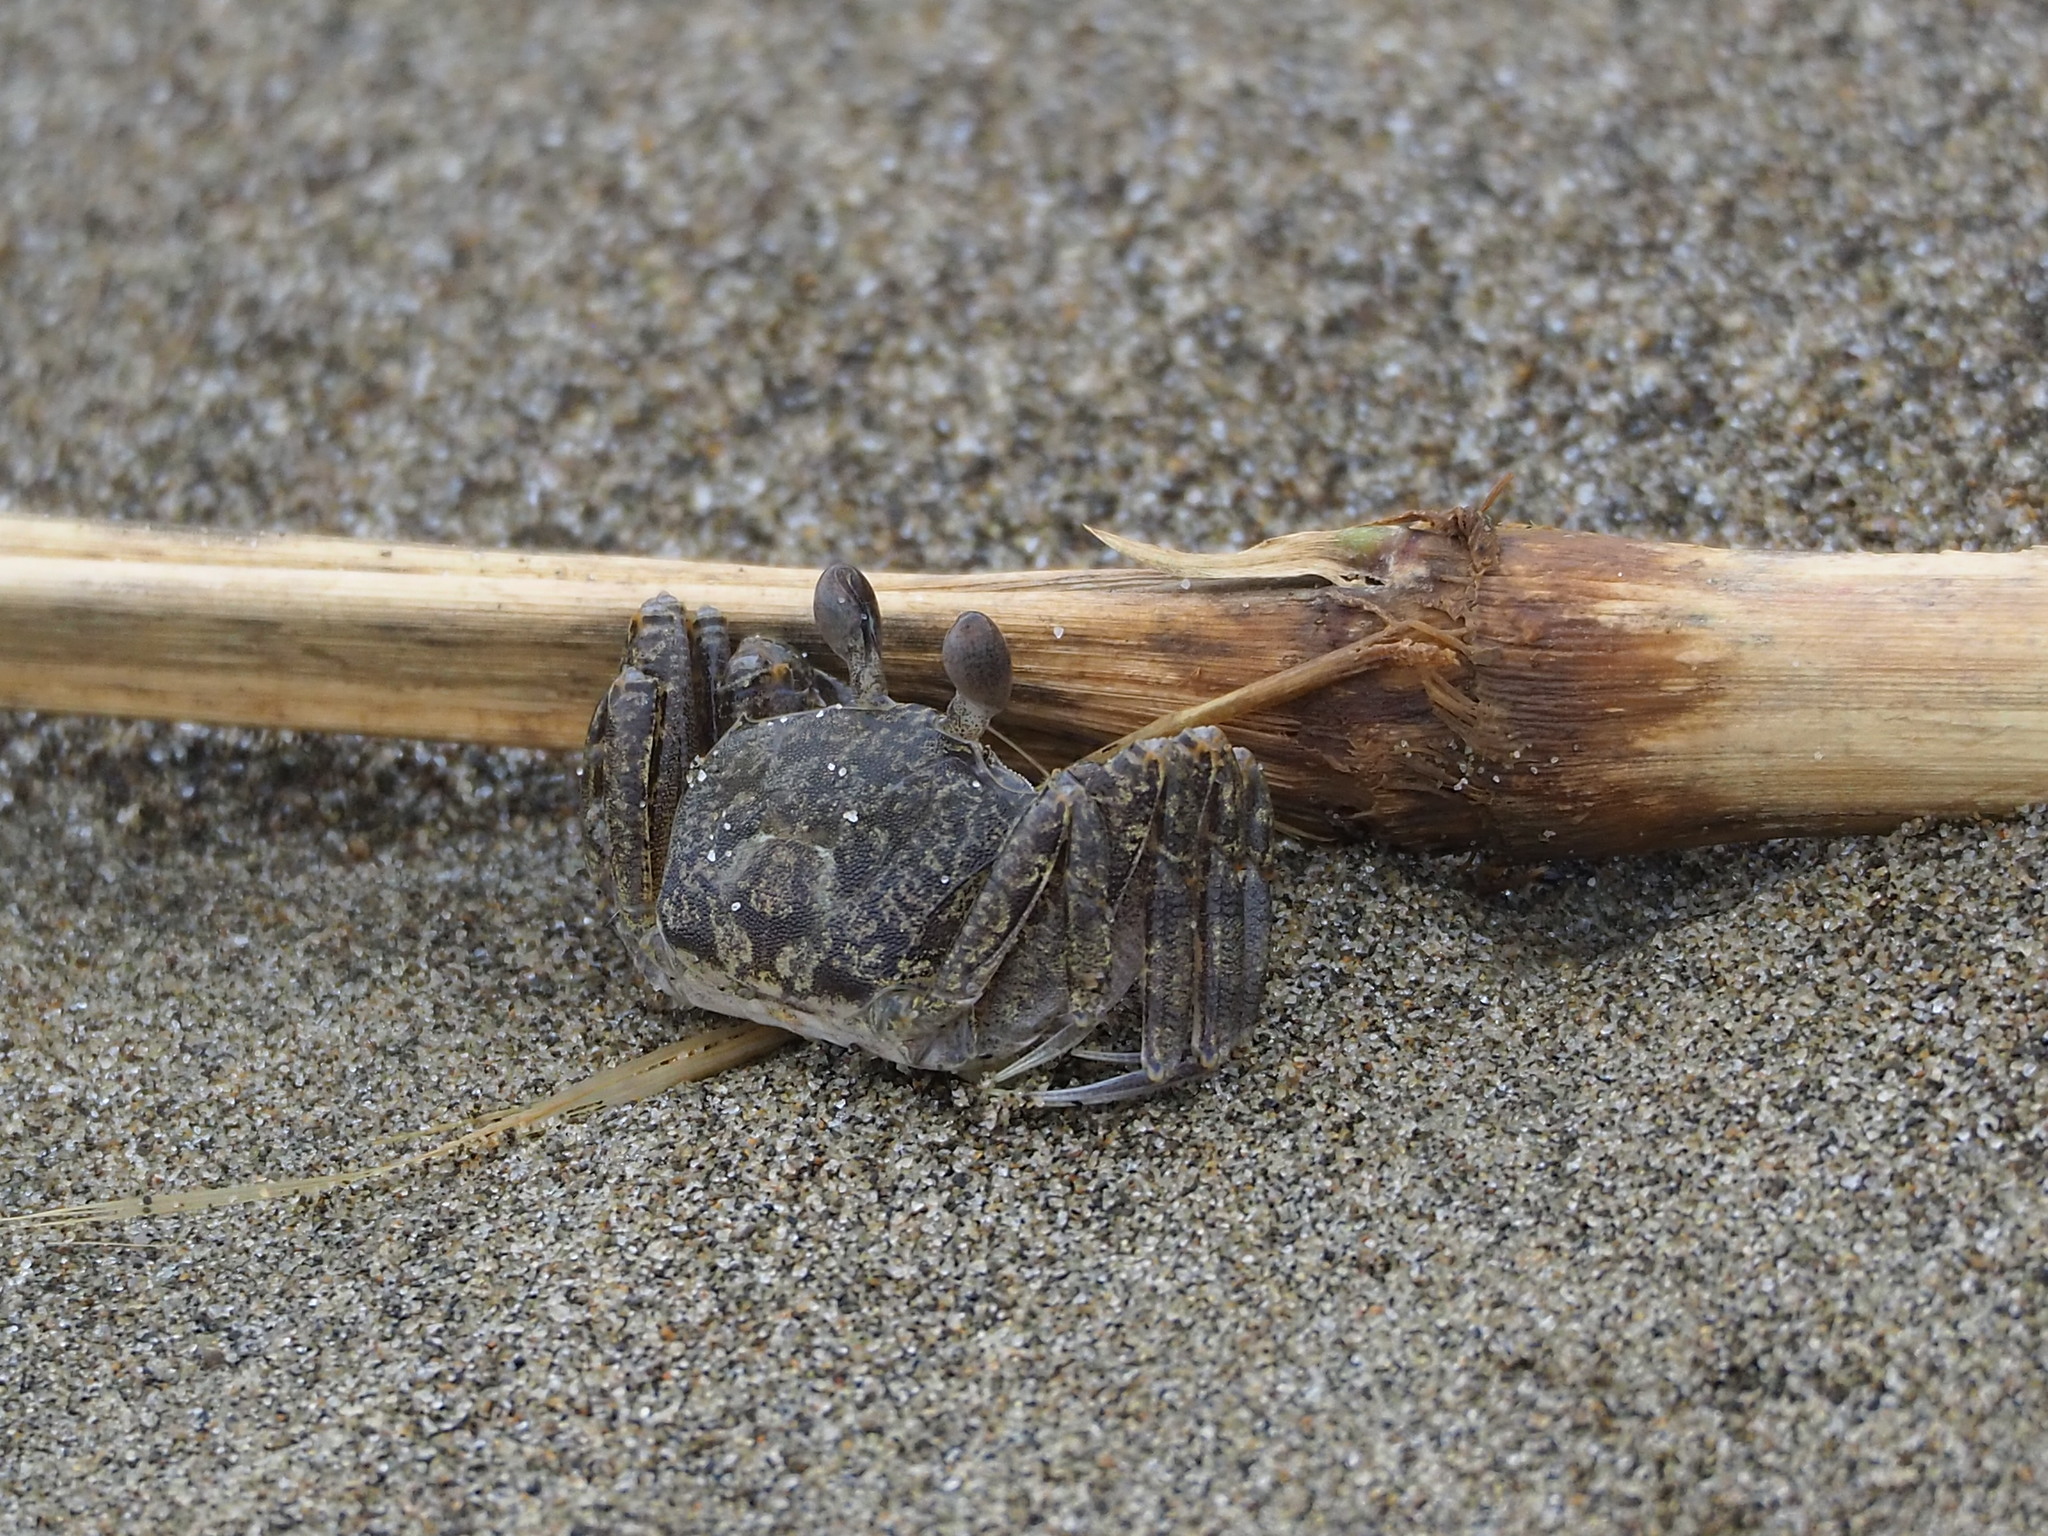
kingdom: Animalia
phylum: Arthropoda
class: Malacostraca
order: Decapoda
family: Ocypodidae
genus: Ocypode
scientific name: Ocypode ceratophthalmus
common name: Indo-pacific ghost crab
